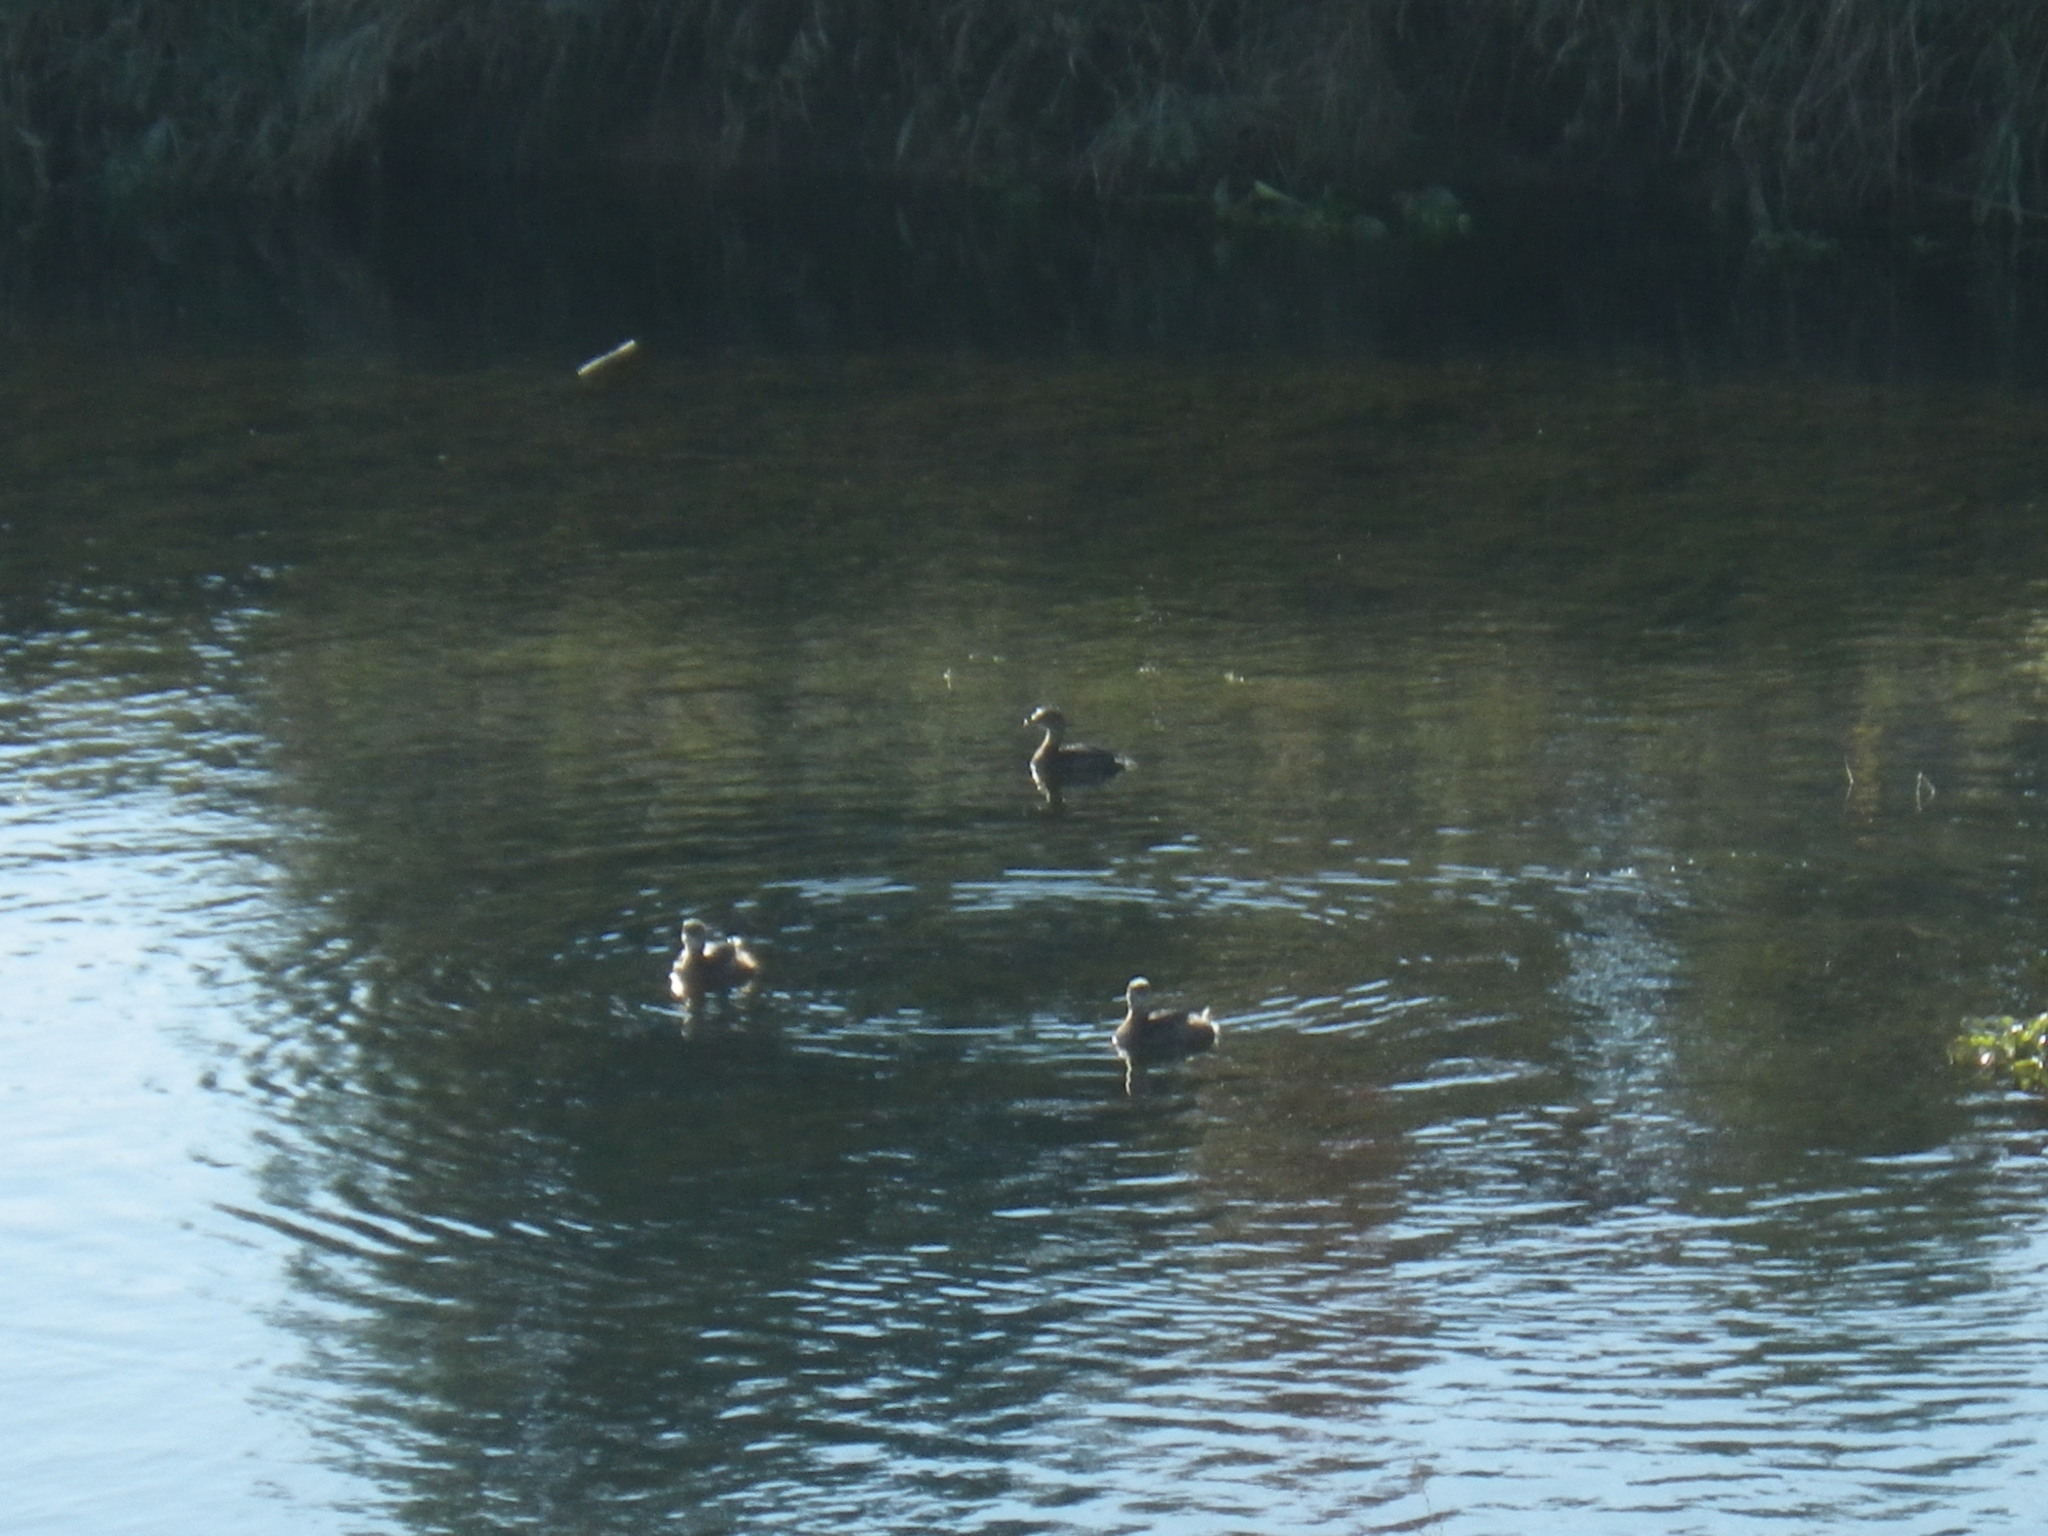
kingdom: Animalia
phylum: Chordata
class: Aves
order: Podicipediformes
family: Podicipedidae
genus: Podilymbus
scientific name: Podilymbus podiceps
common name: Pied-billed grebe
